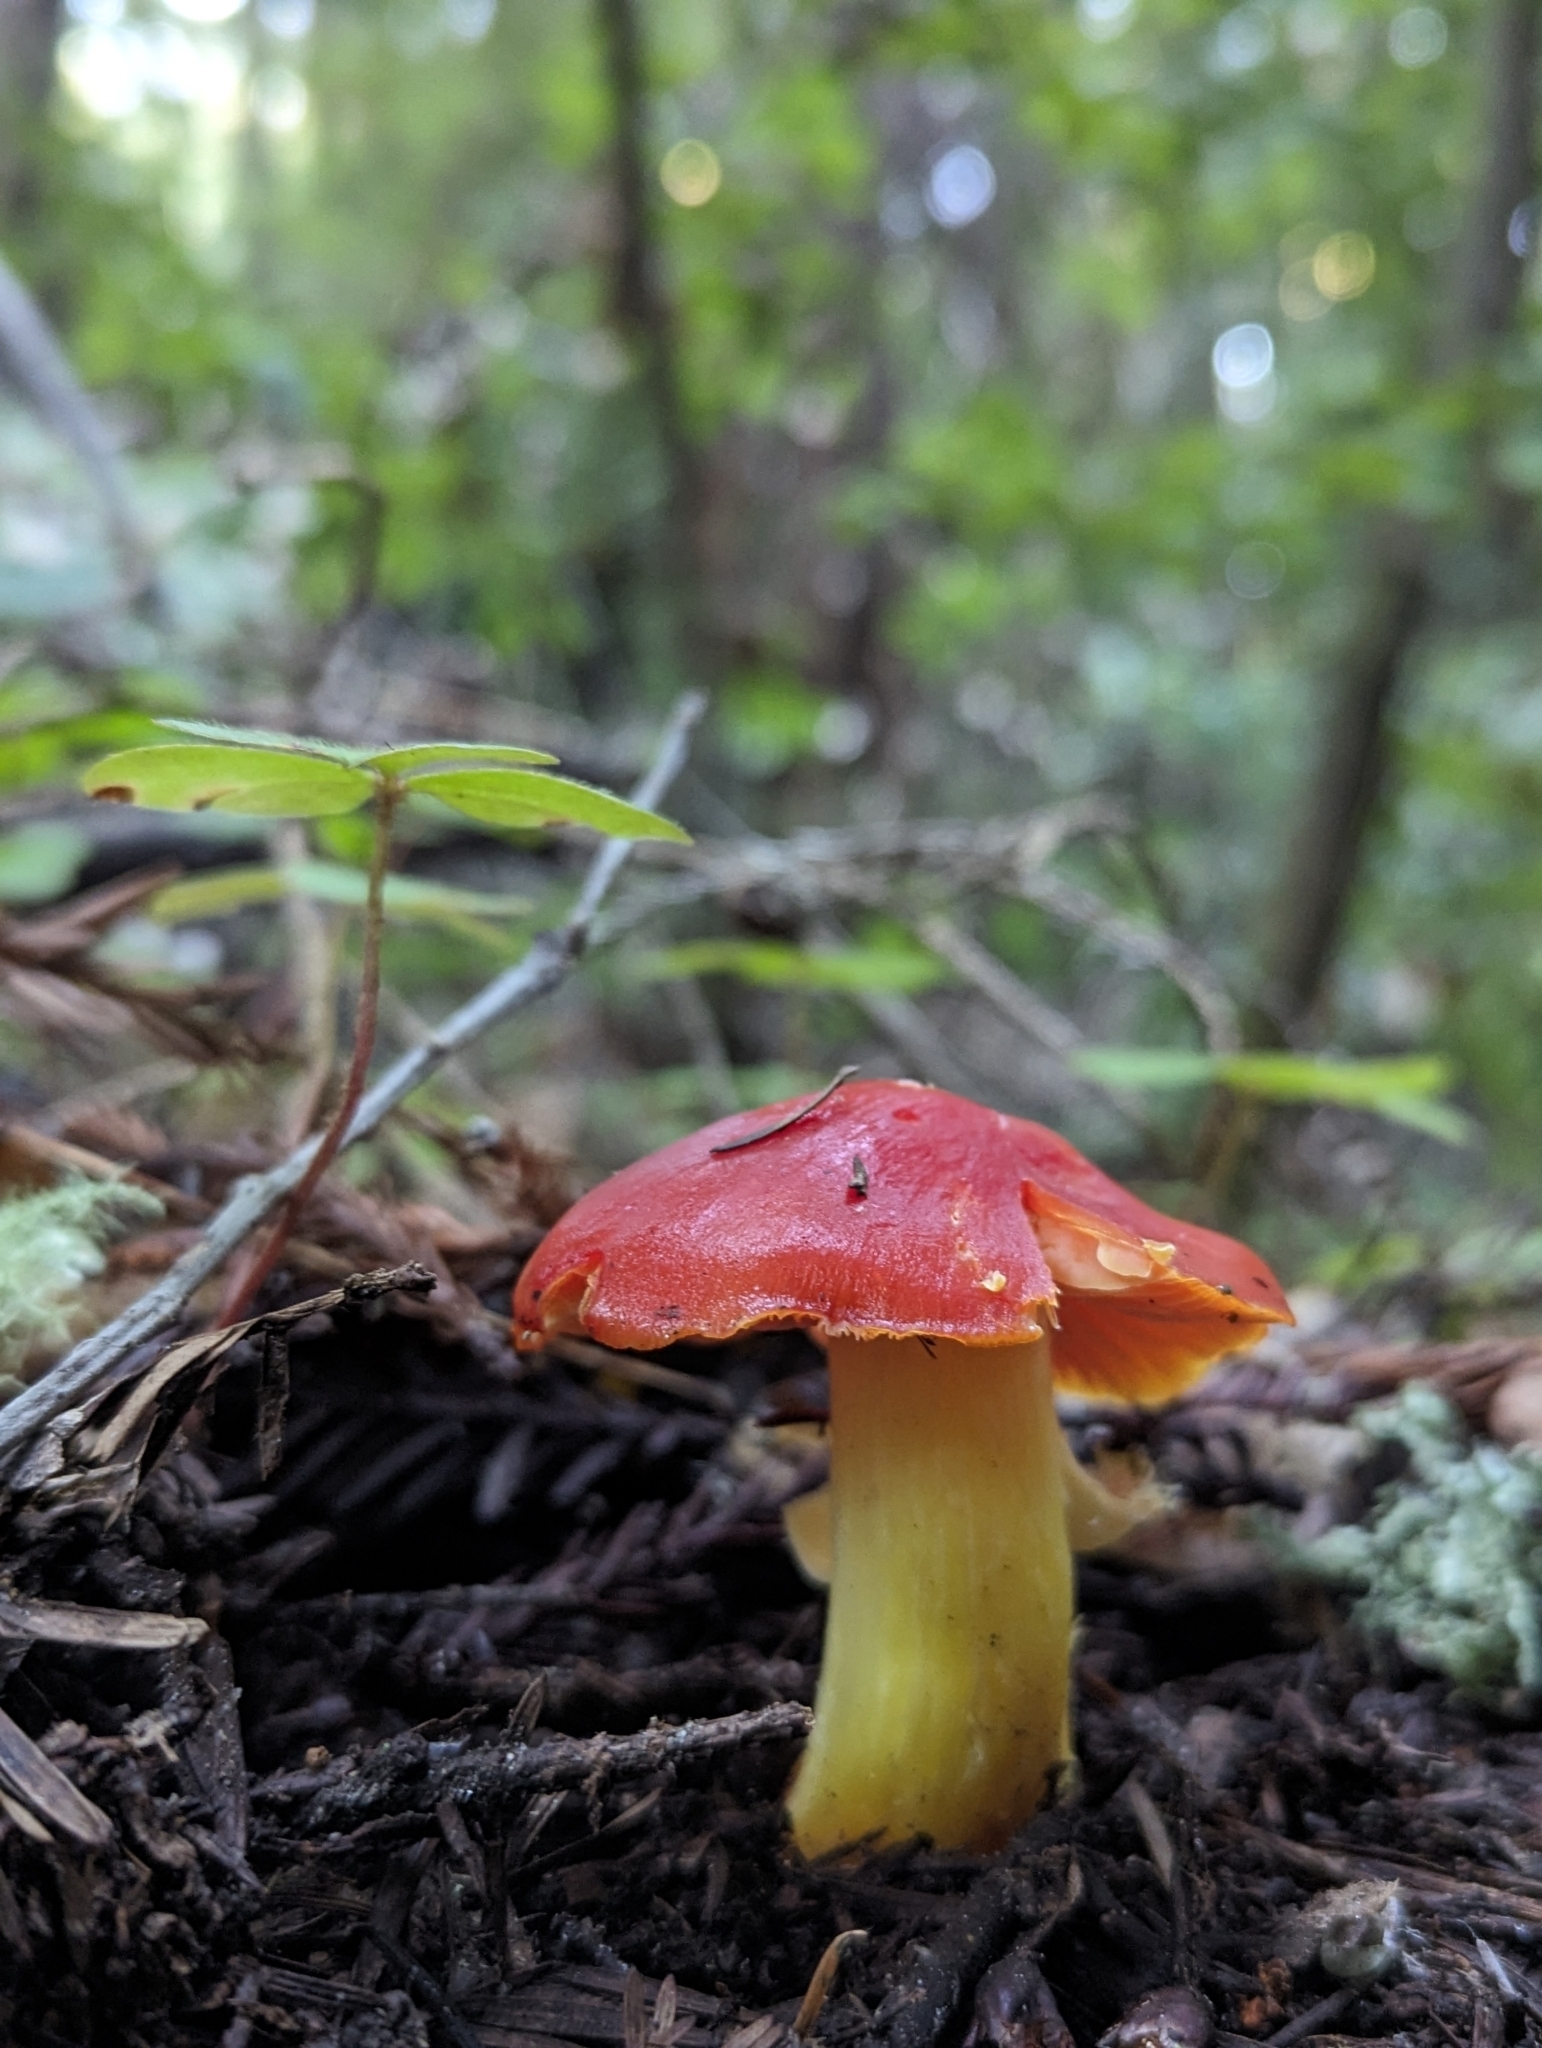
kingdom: Fungi
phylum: Basidiomycota
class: Agaricomycetes
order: Agaricales
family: Hygrophoraceae
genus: Hygrocybe
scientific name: Hygrocybe laetissima
